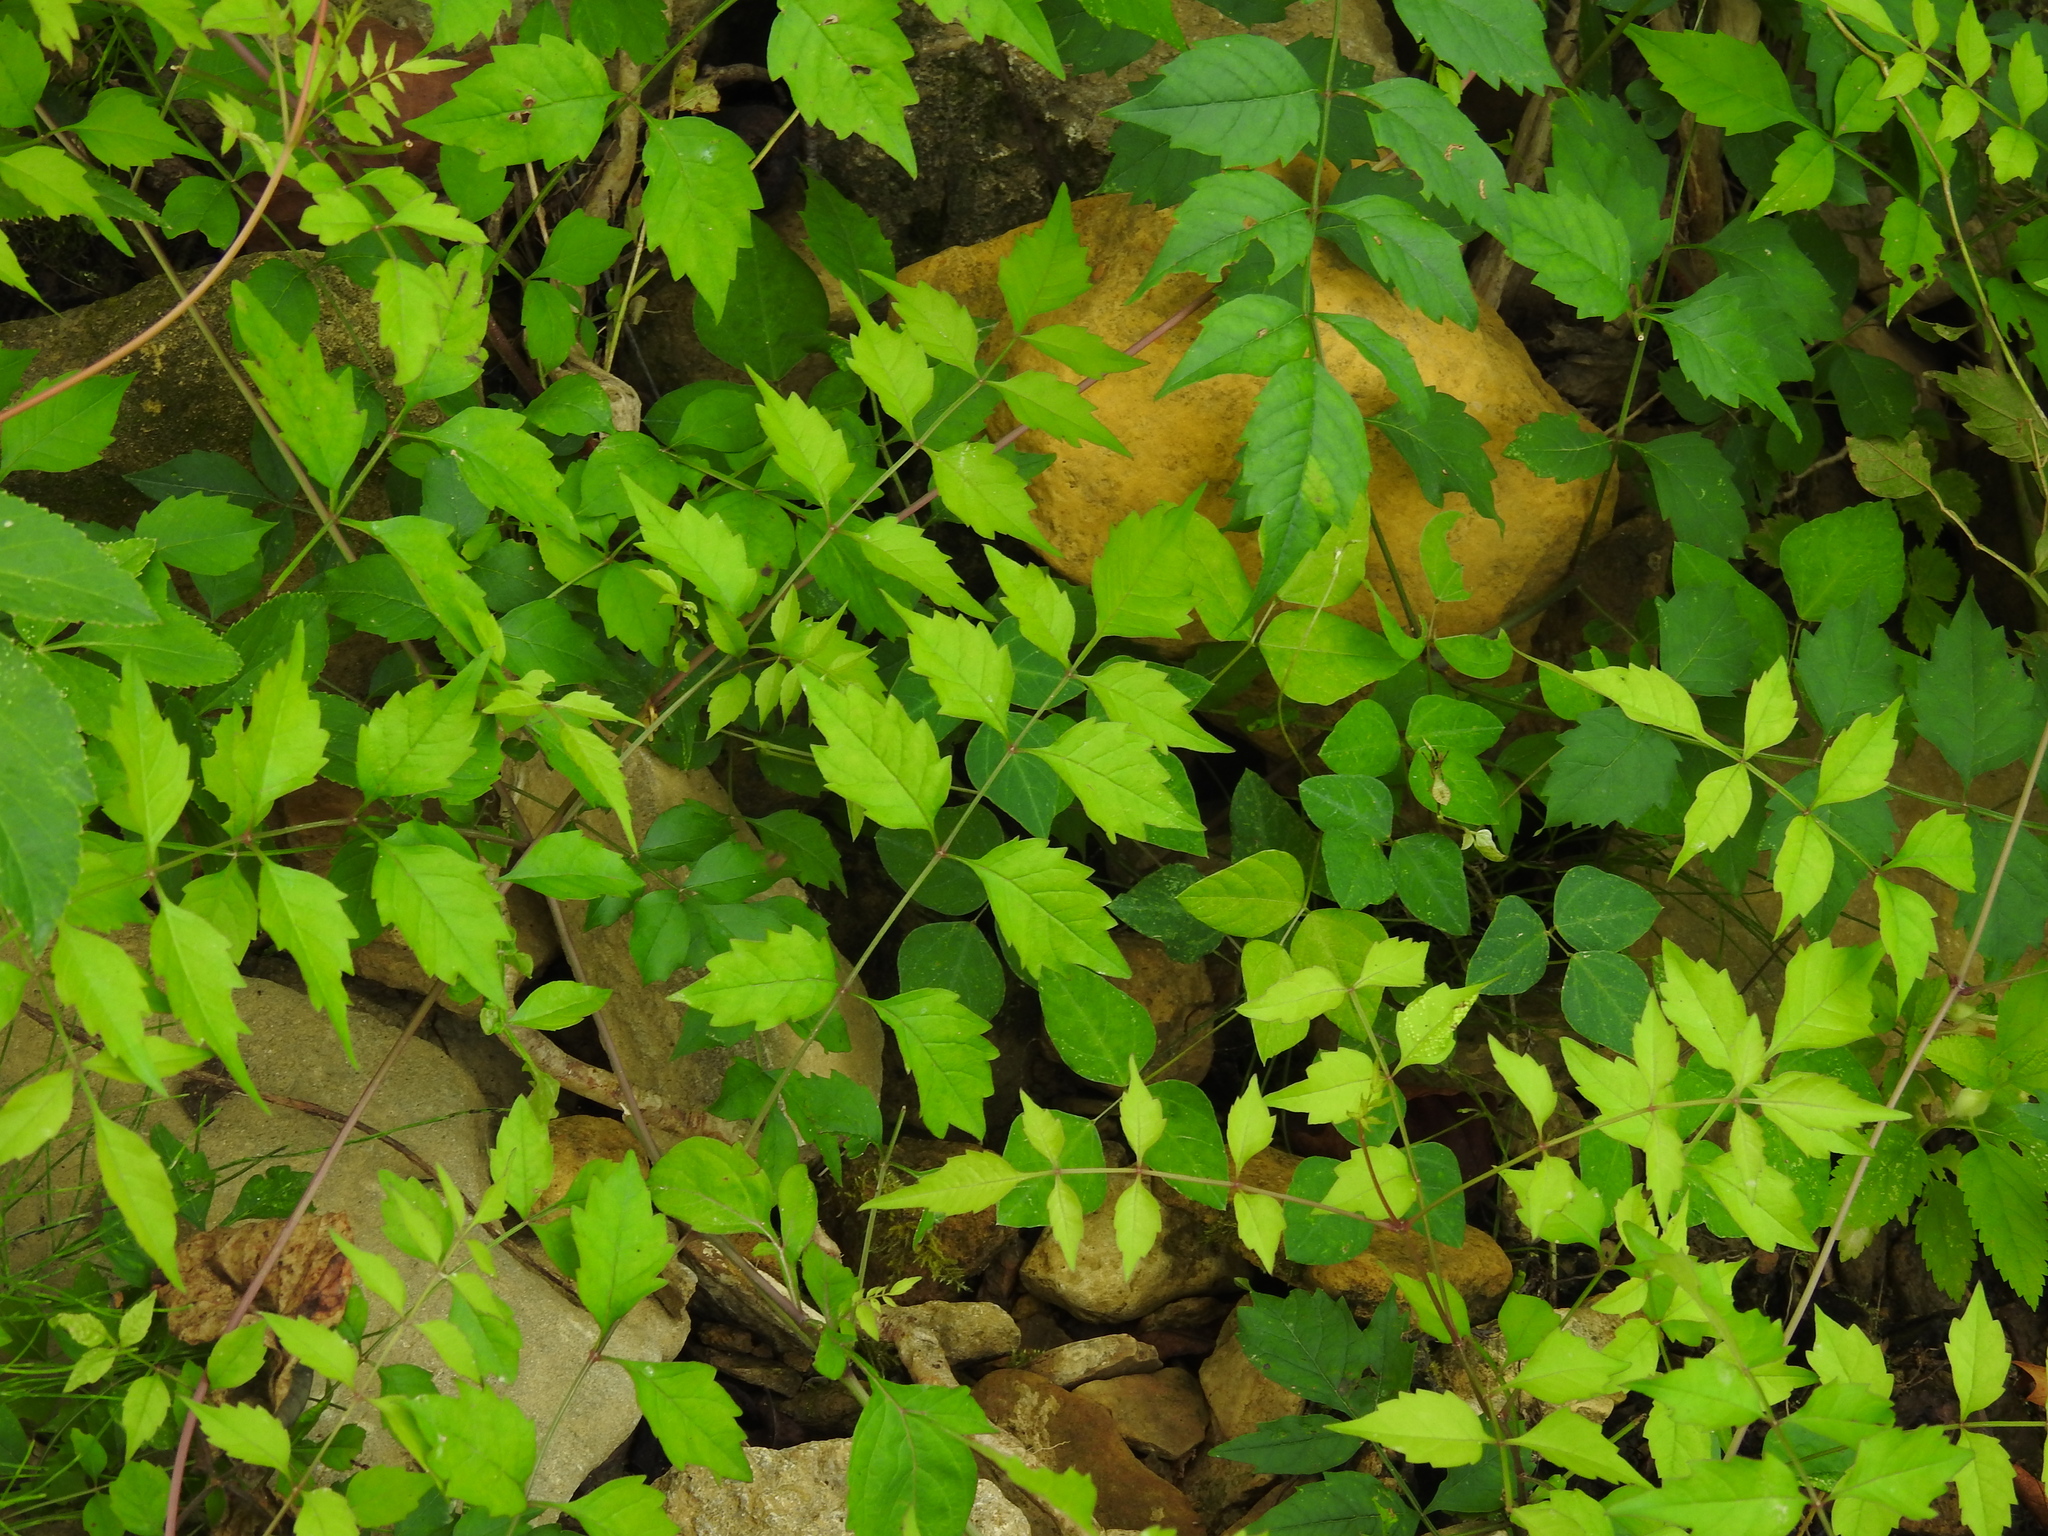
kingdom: Plantae
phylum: Tracheophyta
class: Magnoliopsida
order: Lamiales
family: Bignoniaceae
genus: Campsis
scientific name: Campsis radicans
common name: Trumpet-creeper
